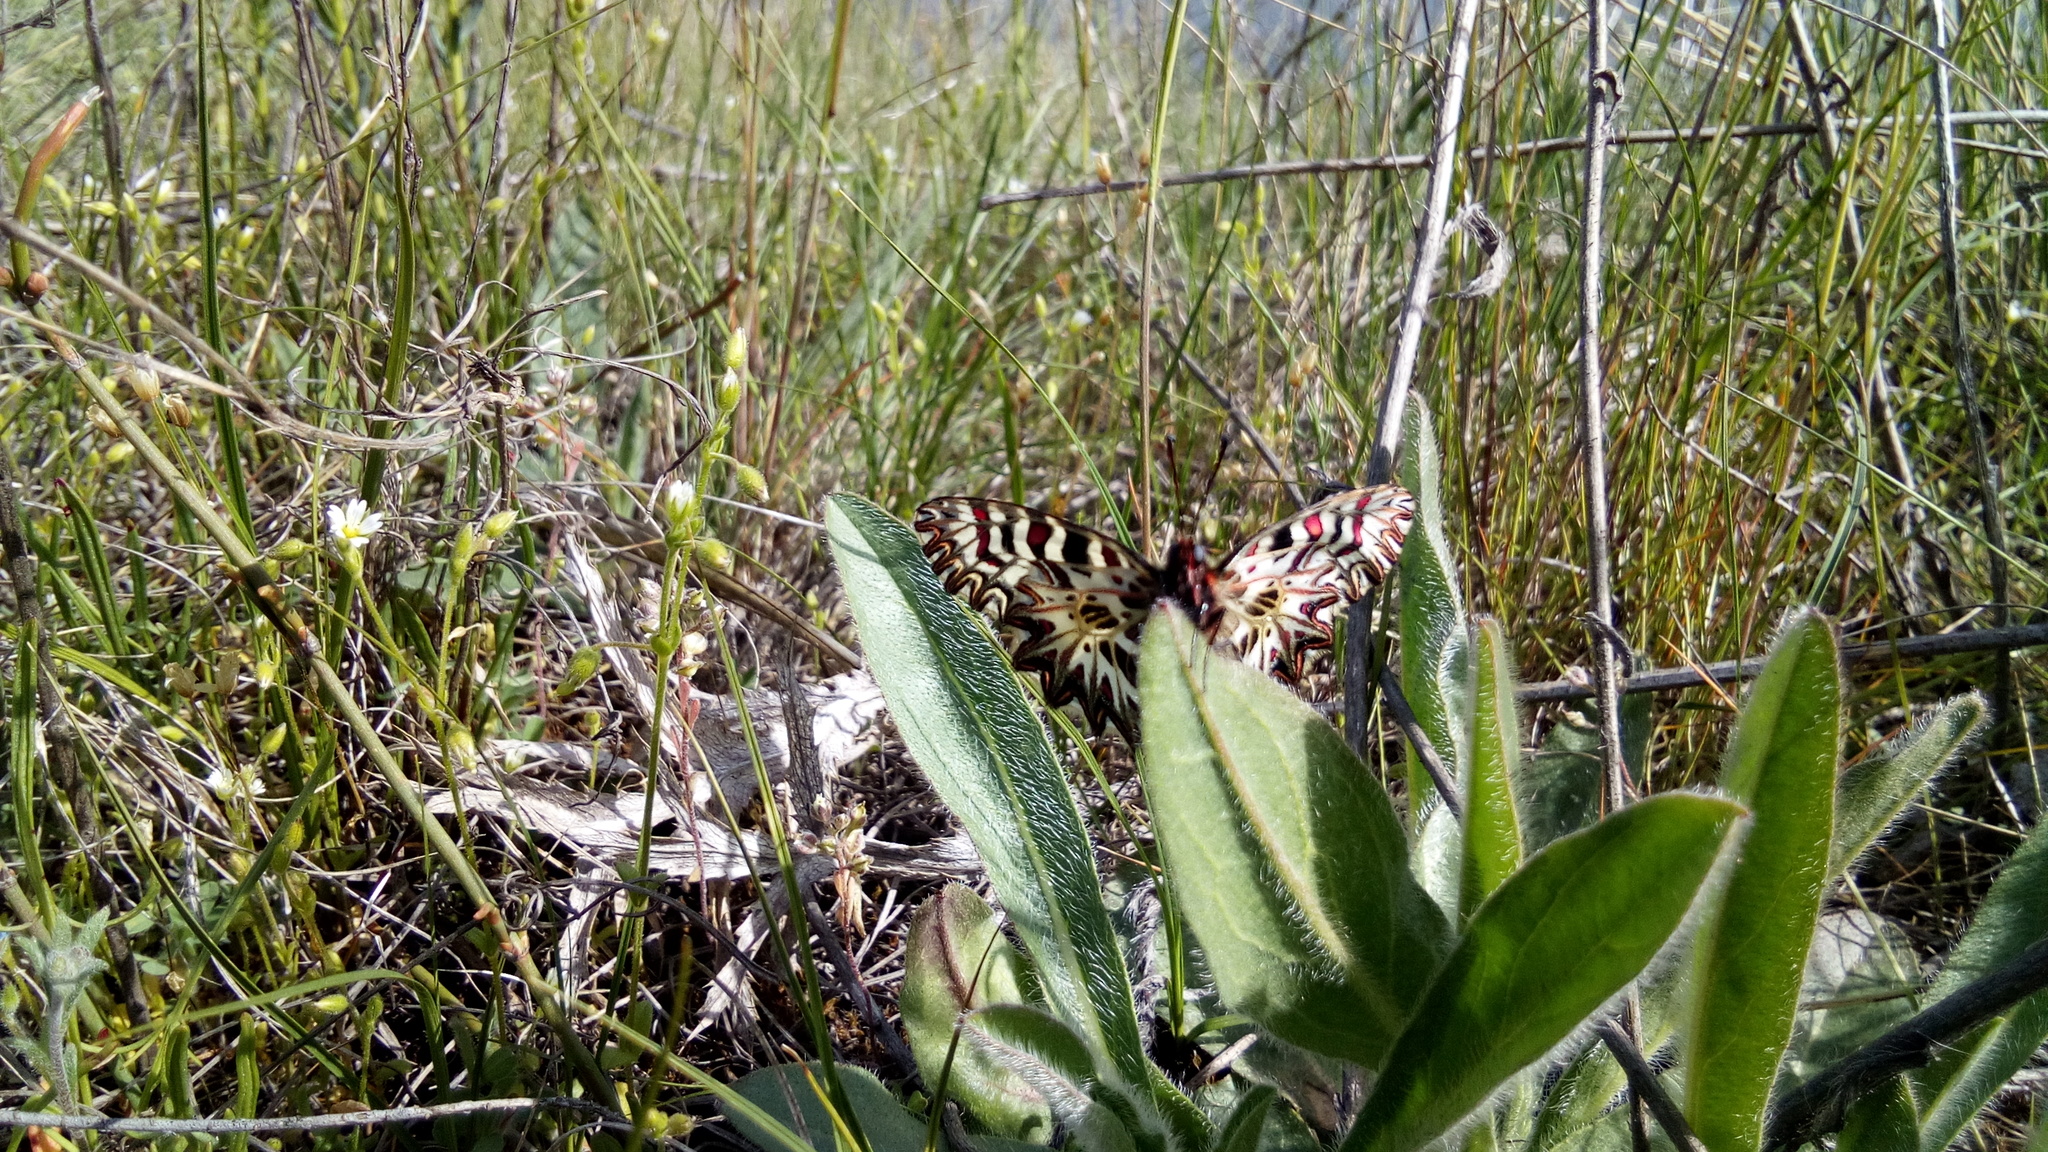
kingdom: Animalia
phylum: Arthropoda
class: Insecta
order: Lepidoptera
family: Papilionidae
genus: Zerynthia
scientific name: Zerynthia polyxena
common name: Southern festoon
